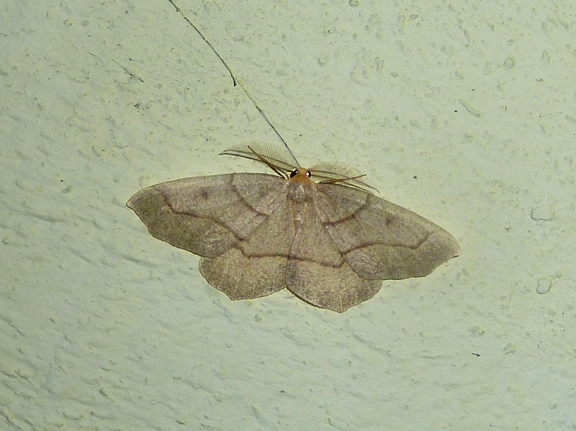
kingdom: Animalia
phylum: Arthropoda
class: Insecta
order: Lepidoptera
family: Geometridae
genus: Lambdina
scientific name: Lambdina fiscellaria
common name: Hemlock looper
